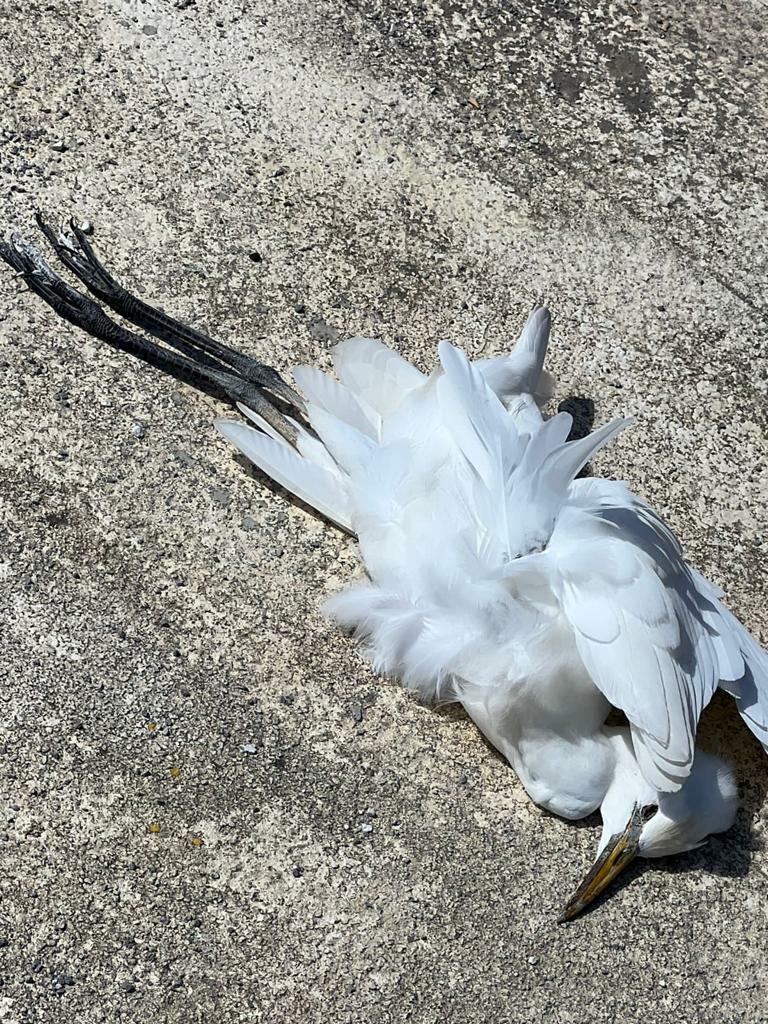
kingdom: Animalia
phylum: Chordata
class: Aves
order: Pelecaniformes
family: Ardeidae
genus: Bubulcus
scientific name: Bubulcus ibis
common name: Cattle egret
